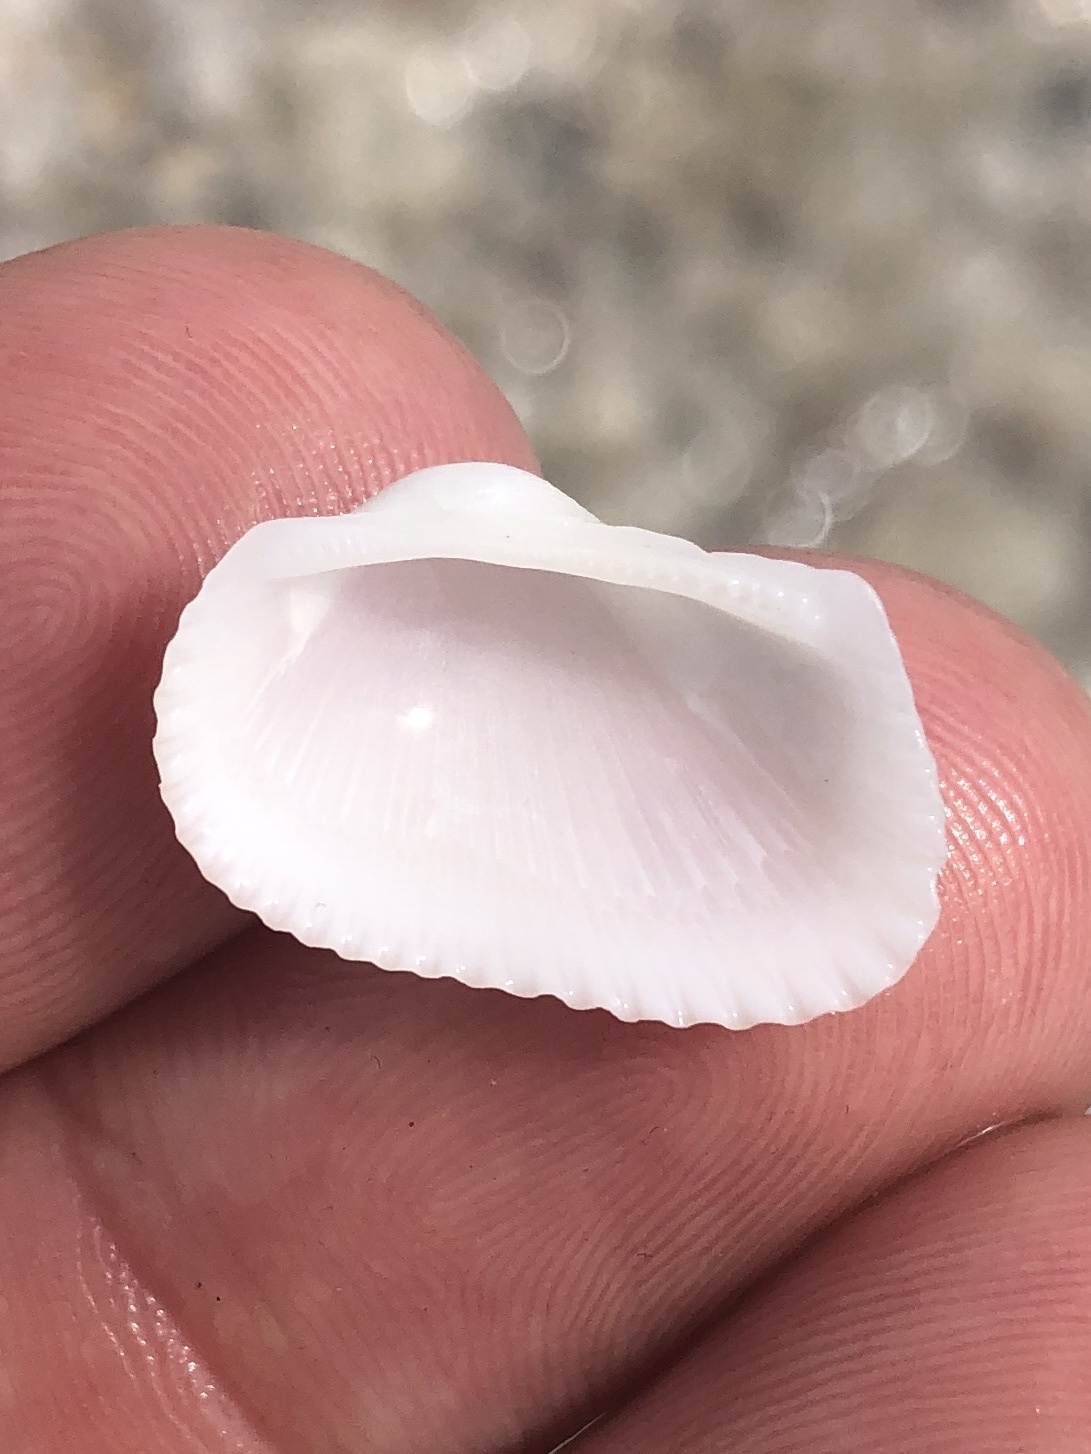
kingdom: Animalia
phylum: Mollusca
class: Bivalvia
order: Arcida
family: Arcidae
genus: Anadara
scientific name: Anadara transversa
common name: Transverse ark
